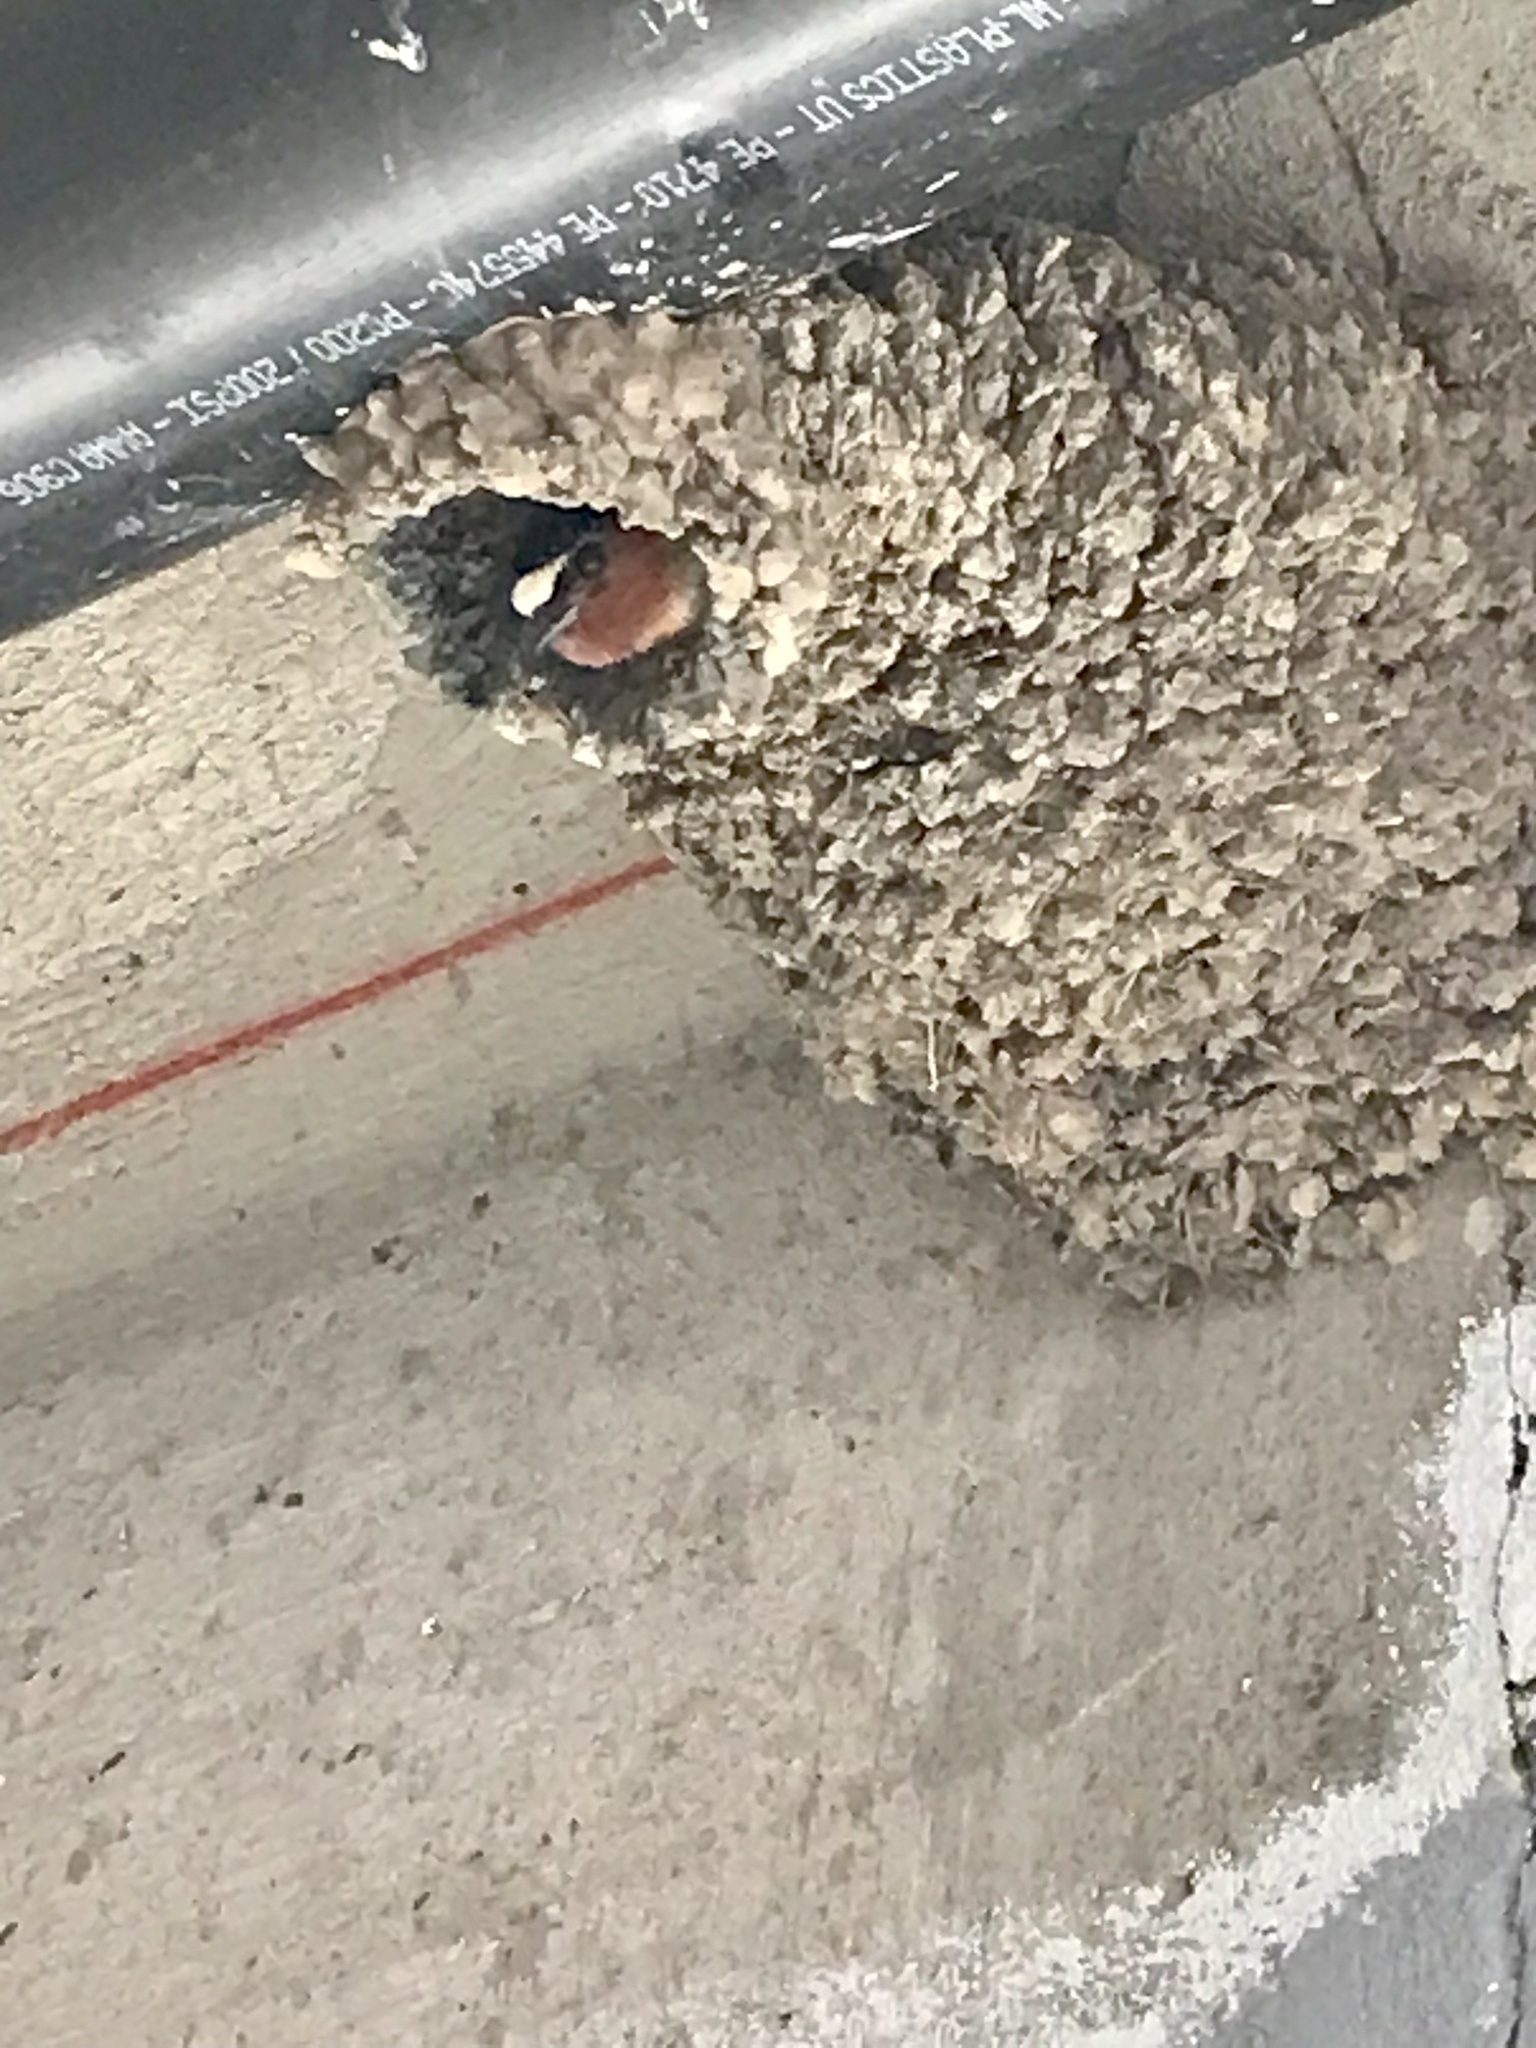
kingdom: Animalia
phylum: Chordata
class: Aves
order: Passeriformes
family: Hirundinidae
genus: Petrochelidon
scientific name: Petrochelidon pyrrhonota
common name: American cliff swallow
